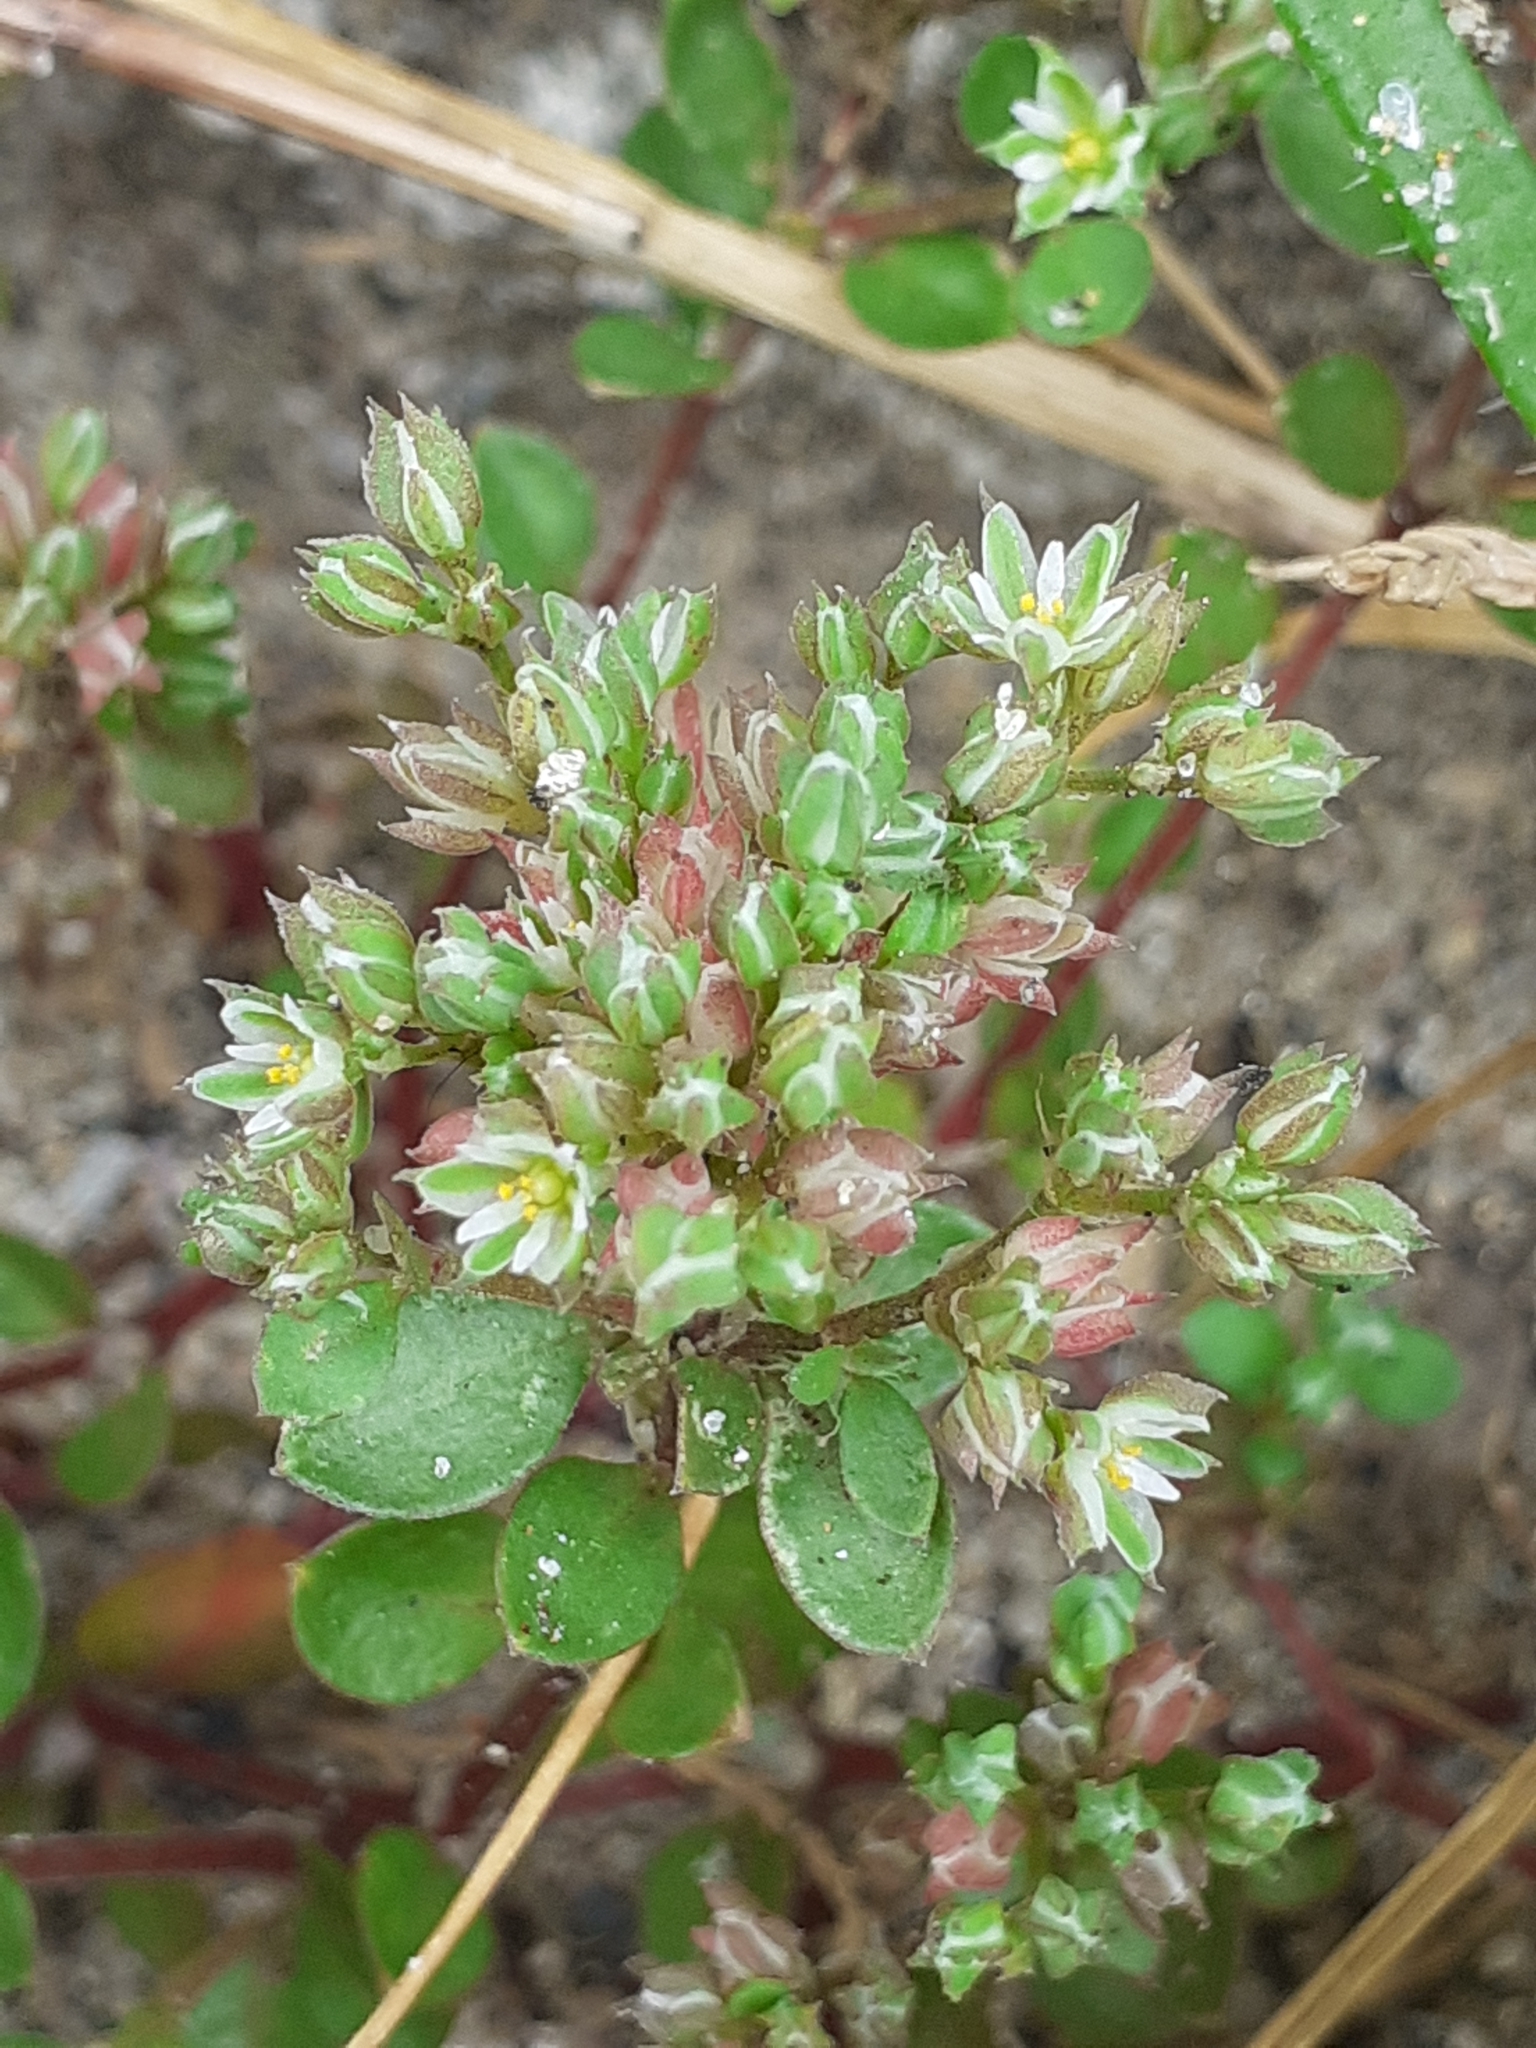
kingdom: Plantae
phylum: Tracheophyta
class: Magnoliopsida
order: Caryophyllales
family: Caryophyllaceae
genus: Polycarpon
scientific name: Polycarpon tetraphyllum
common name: Four-leaved all-seed
